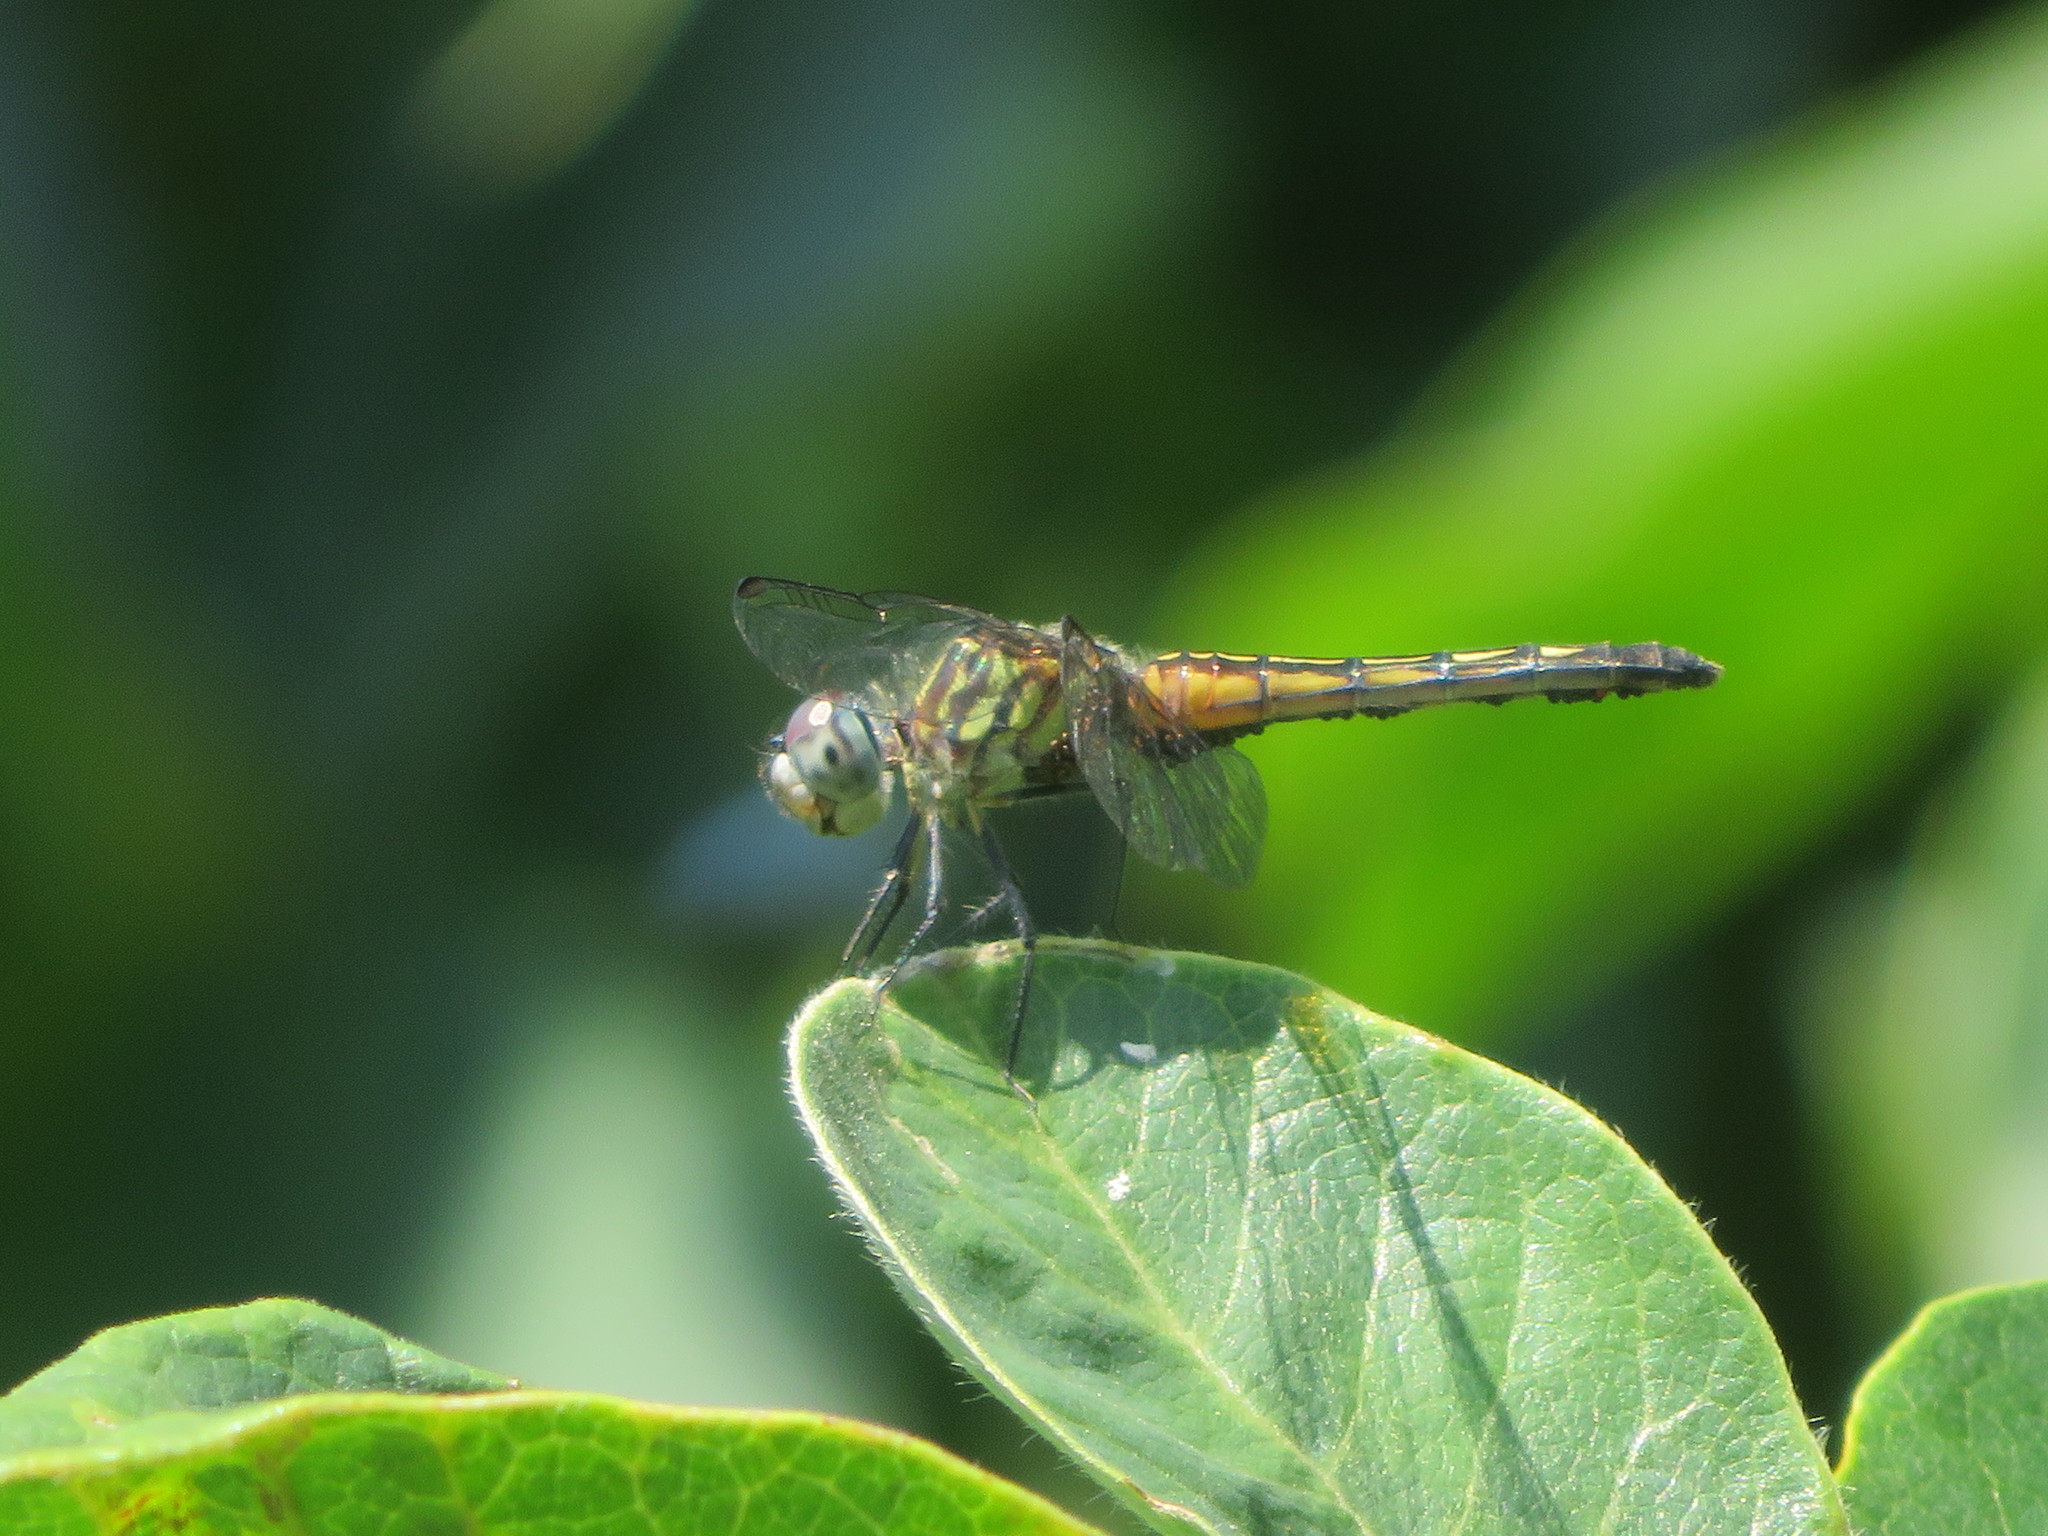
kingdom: Animalia
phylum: Arthropoda
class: Insecta
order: Odonata
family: Libellulidae
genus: Pachydiplax
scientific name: Pachydiplax longipennis
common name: Blue dasher
